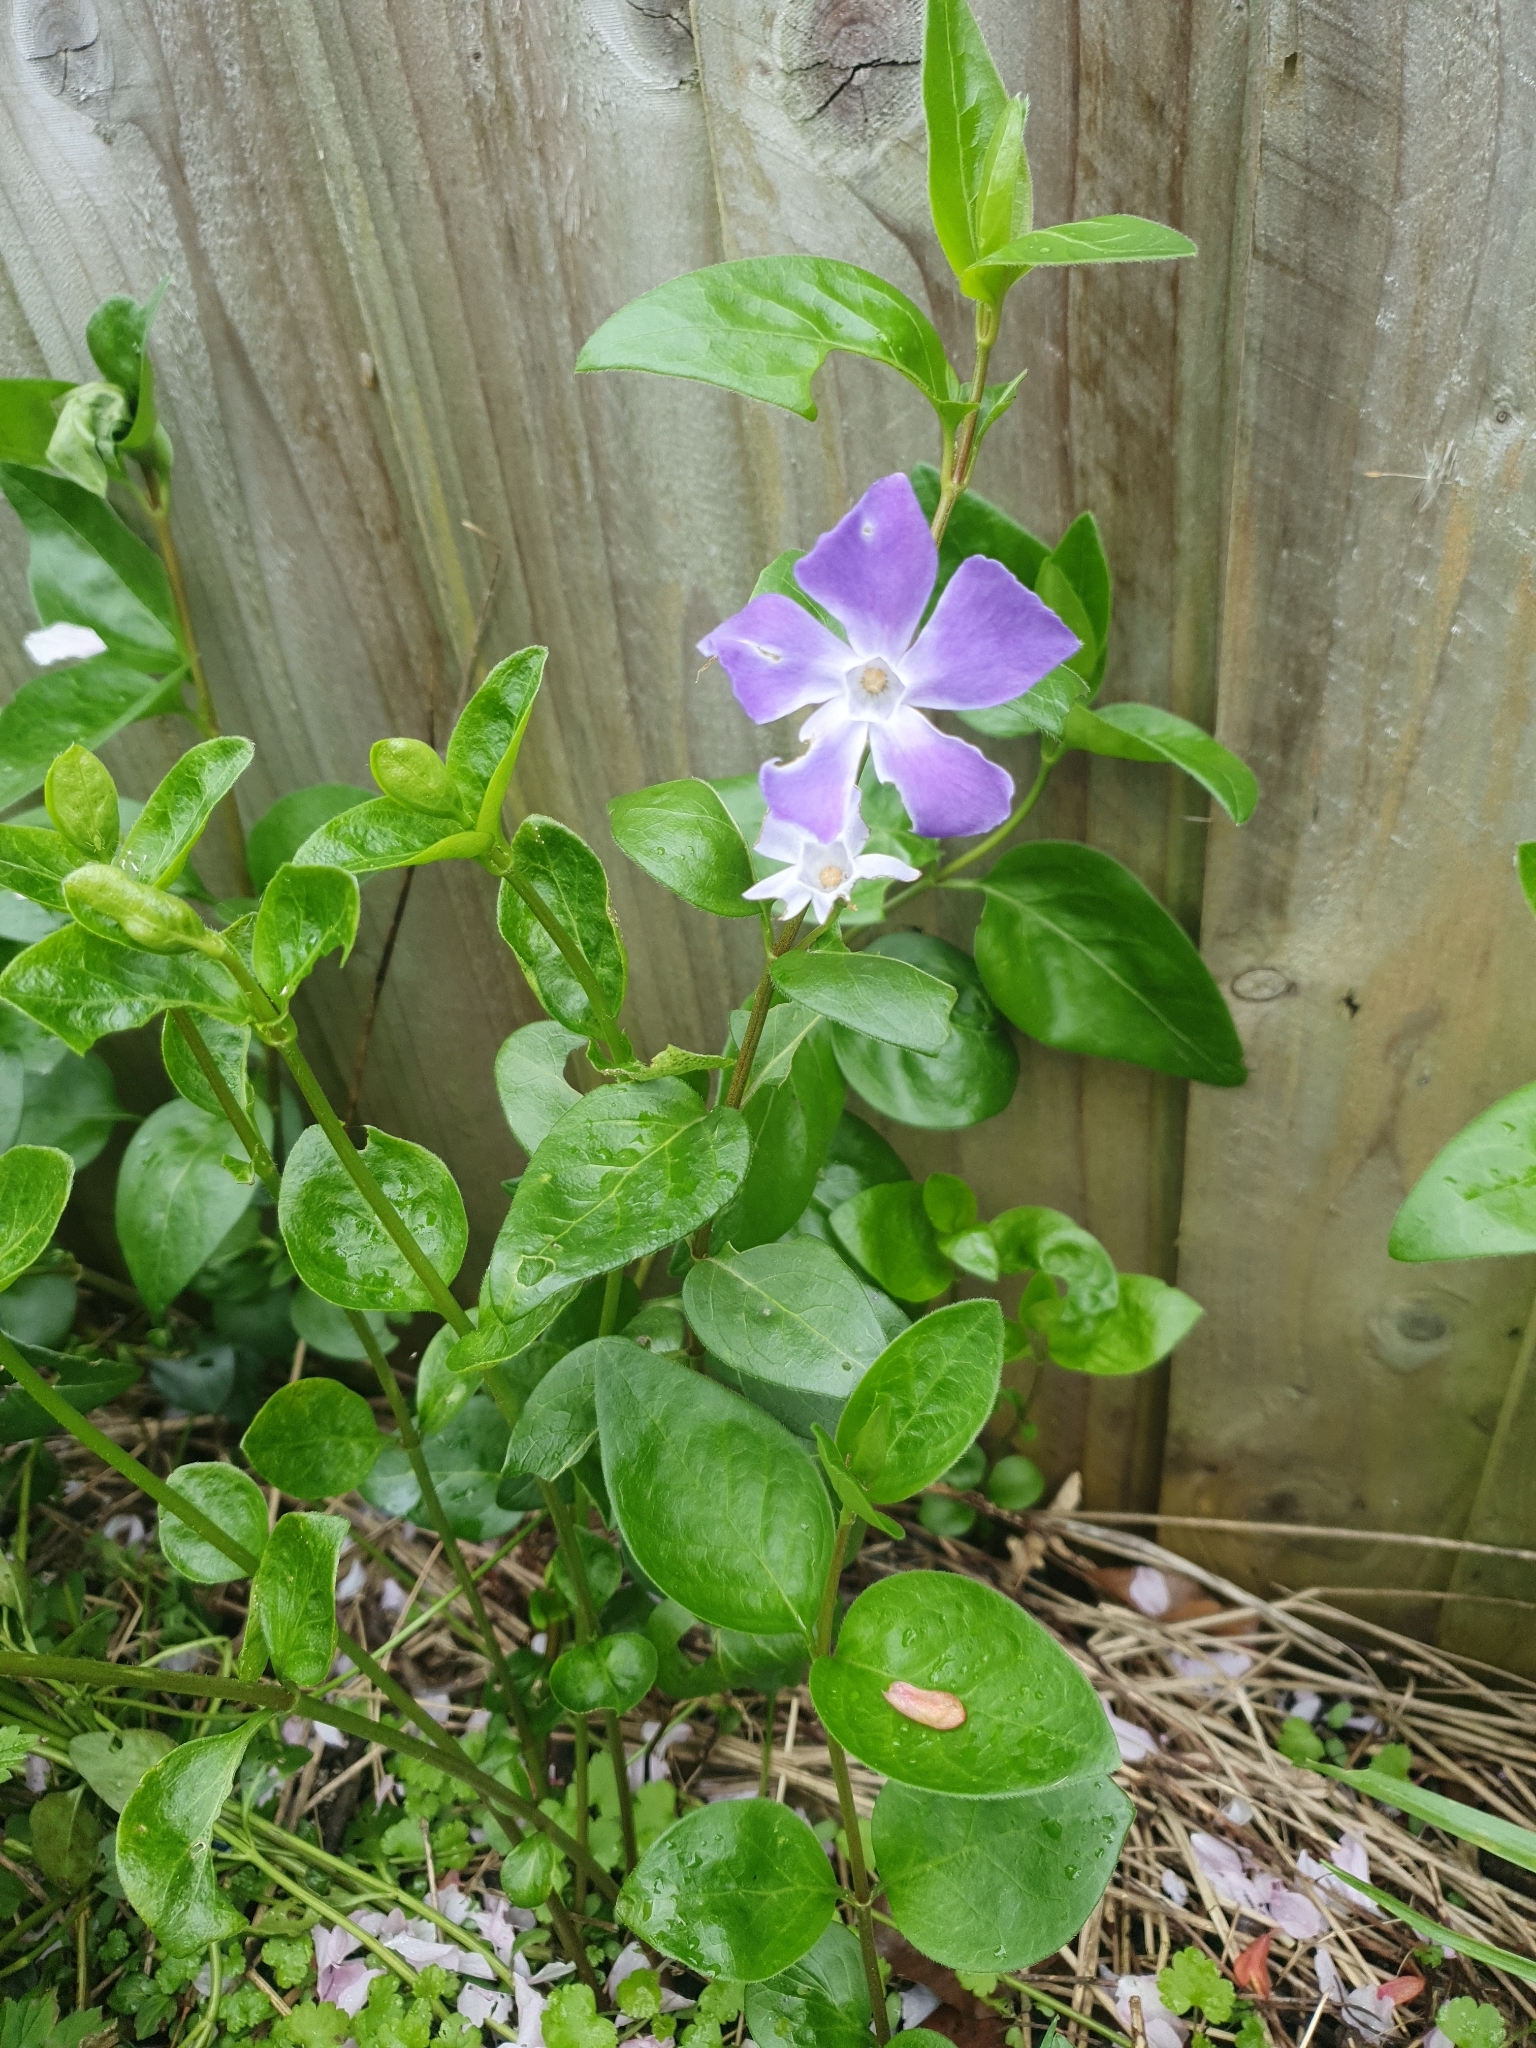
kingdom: Plantae
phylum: Tracheophyta
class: Magnoliopsida
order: Gentianales
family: Apocynaceae
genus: Vinca
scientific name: Vinca major
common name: Greater periwinkle
